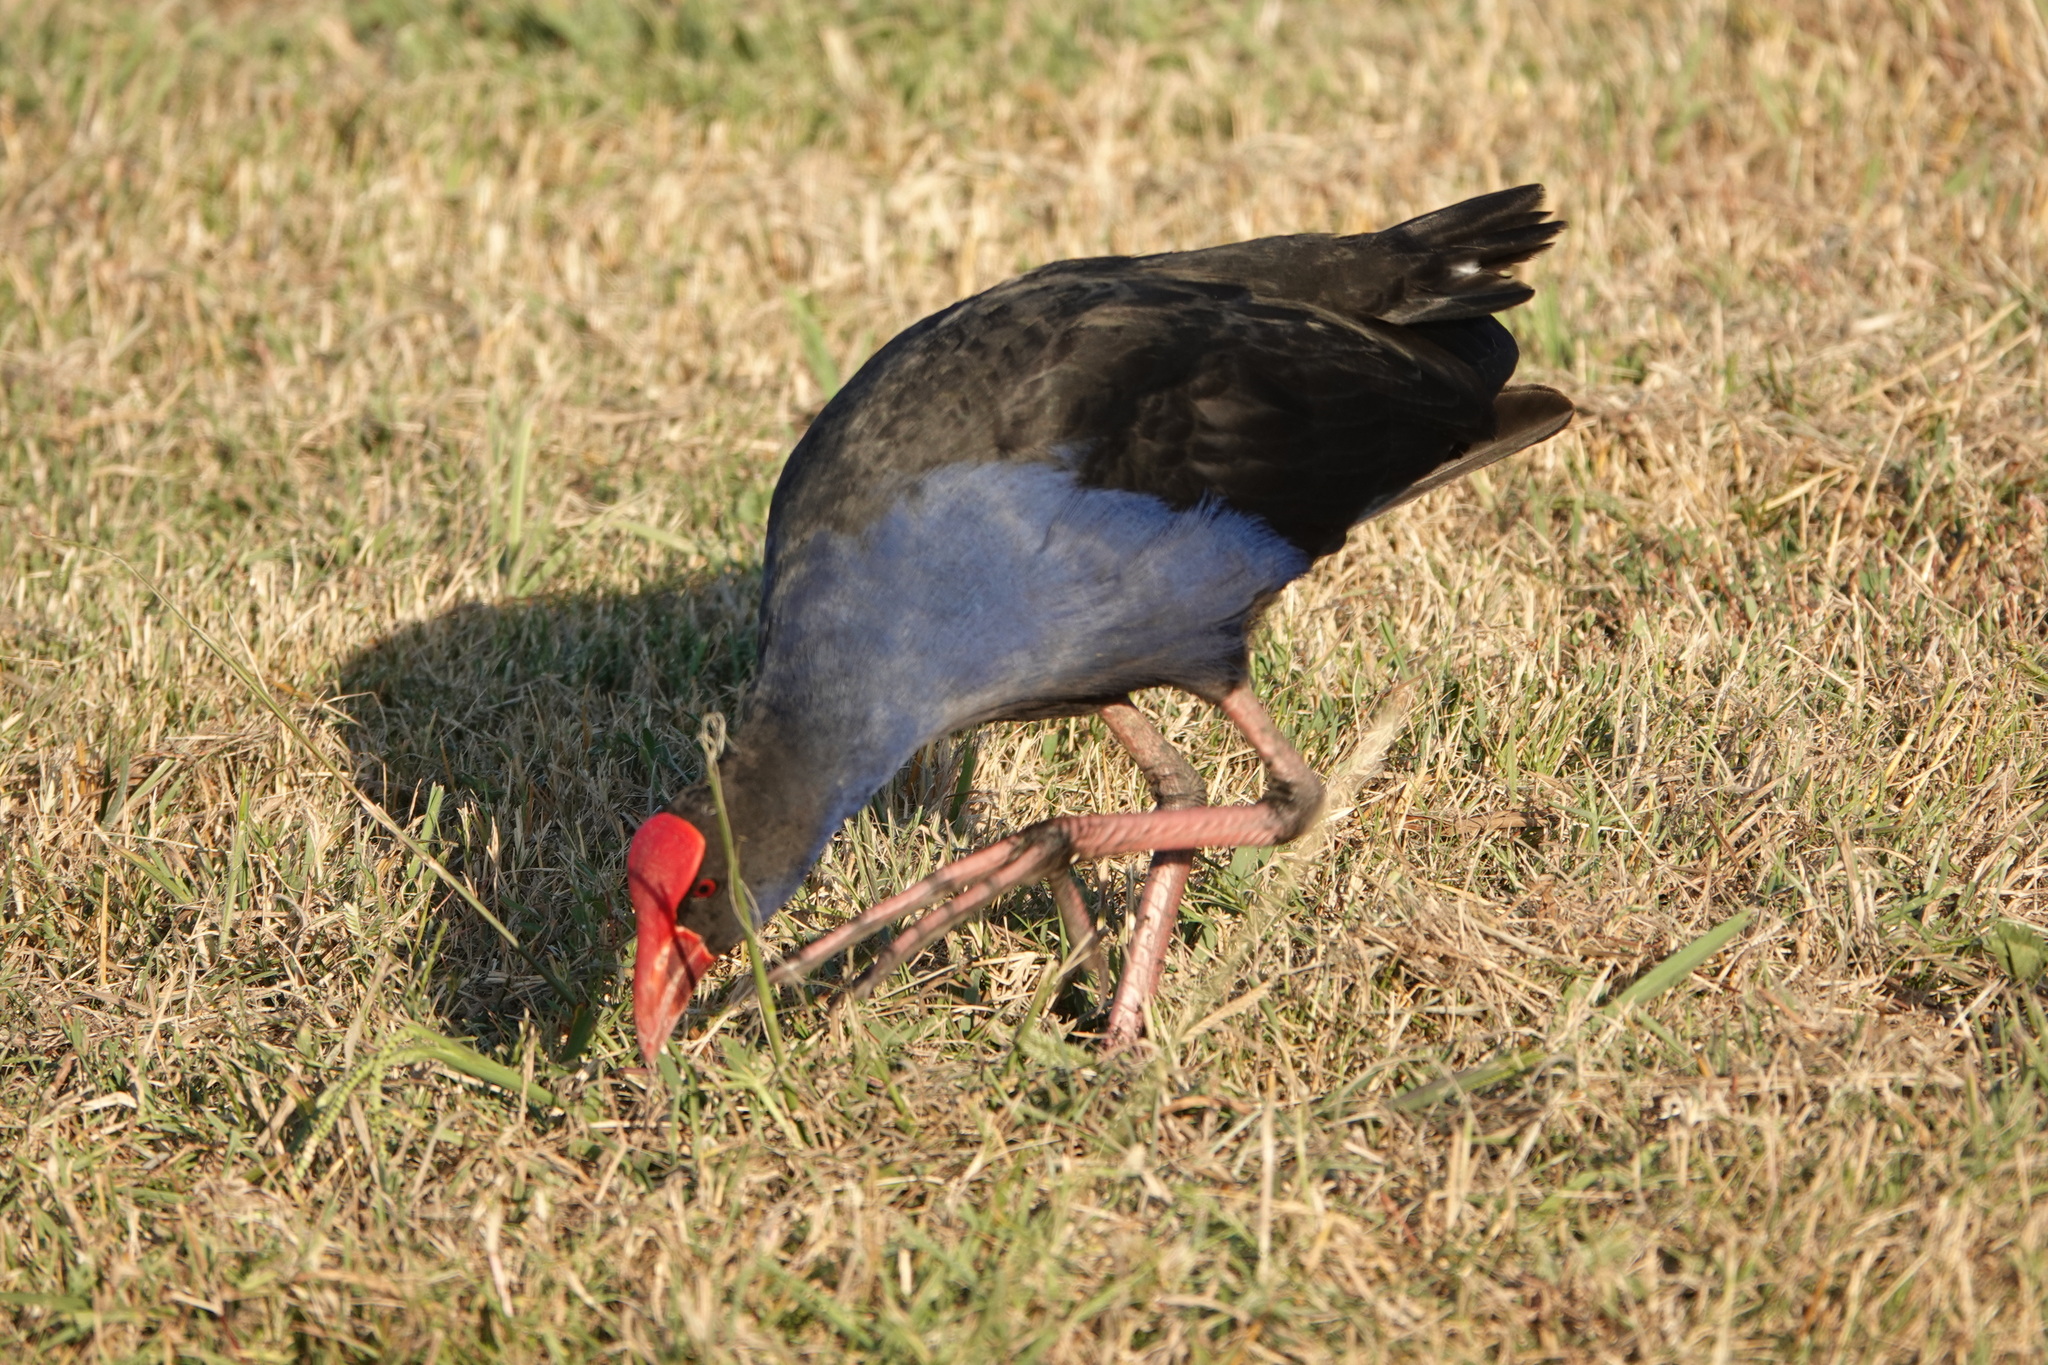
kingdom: Animalia
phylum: Chordata
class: Aves
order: Gruiformes
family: Rallidae
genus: Porphyrio
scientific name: Porphyrio melanotus
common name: Australasian swamphen
